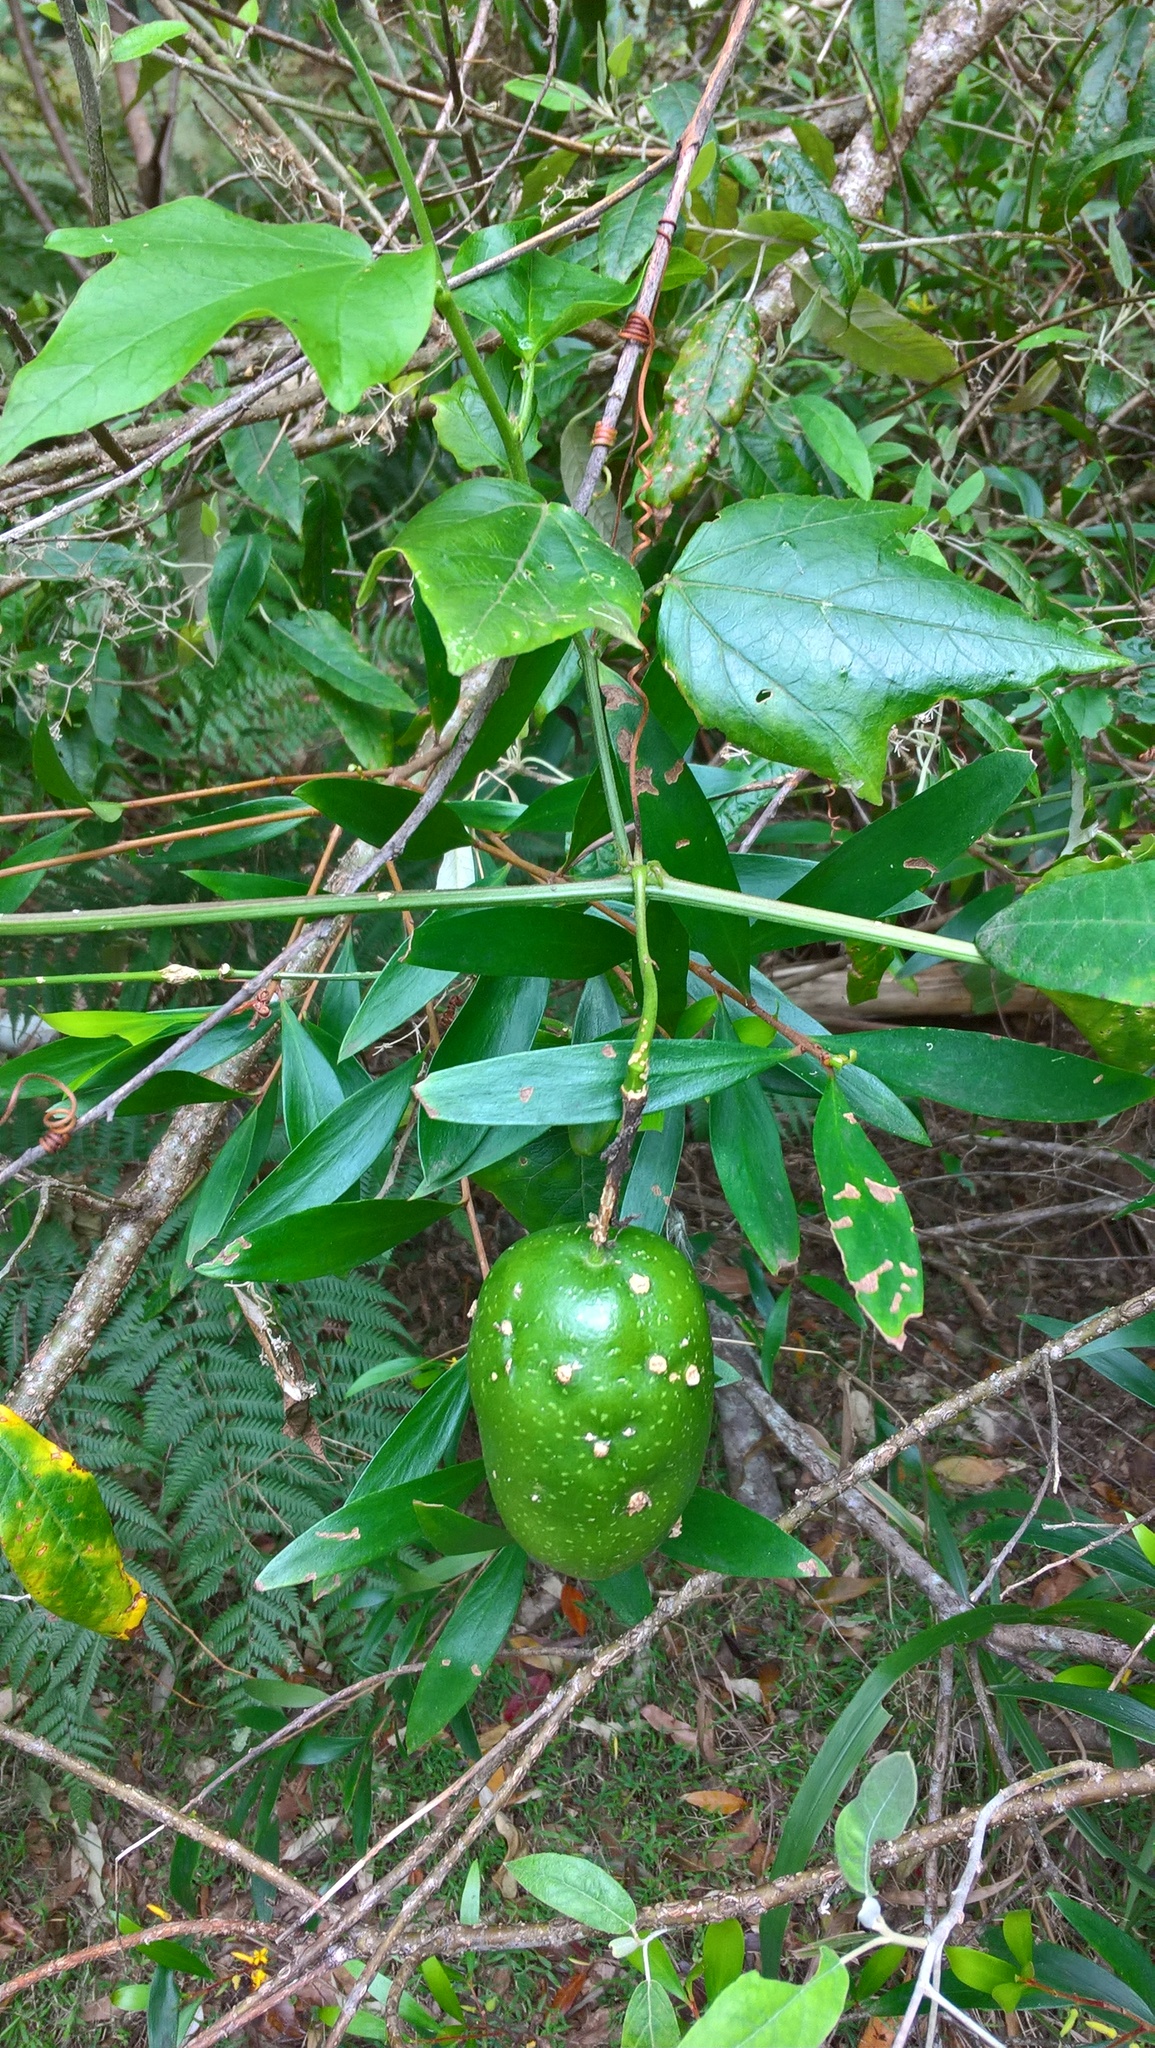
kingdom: Plantae
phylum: Tracheophyta
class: Magnoliopsida
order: Malpighiales
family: Passifloraceae
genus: Passiflora
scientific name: Passiflora herbertiana
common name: Yellow passionflower
